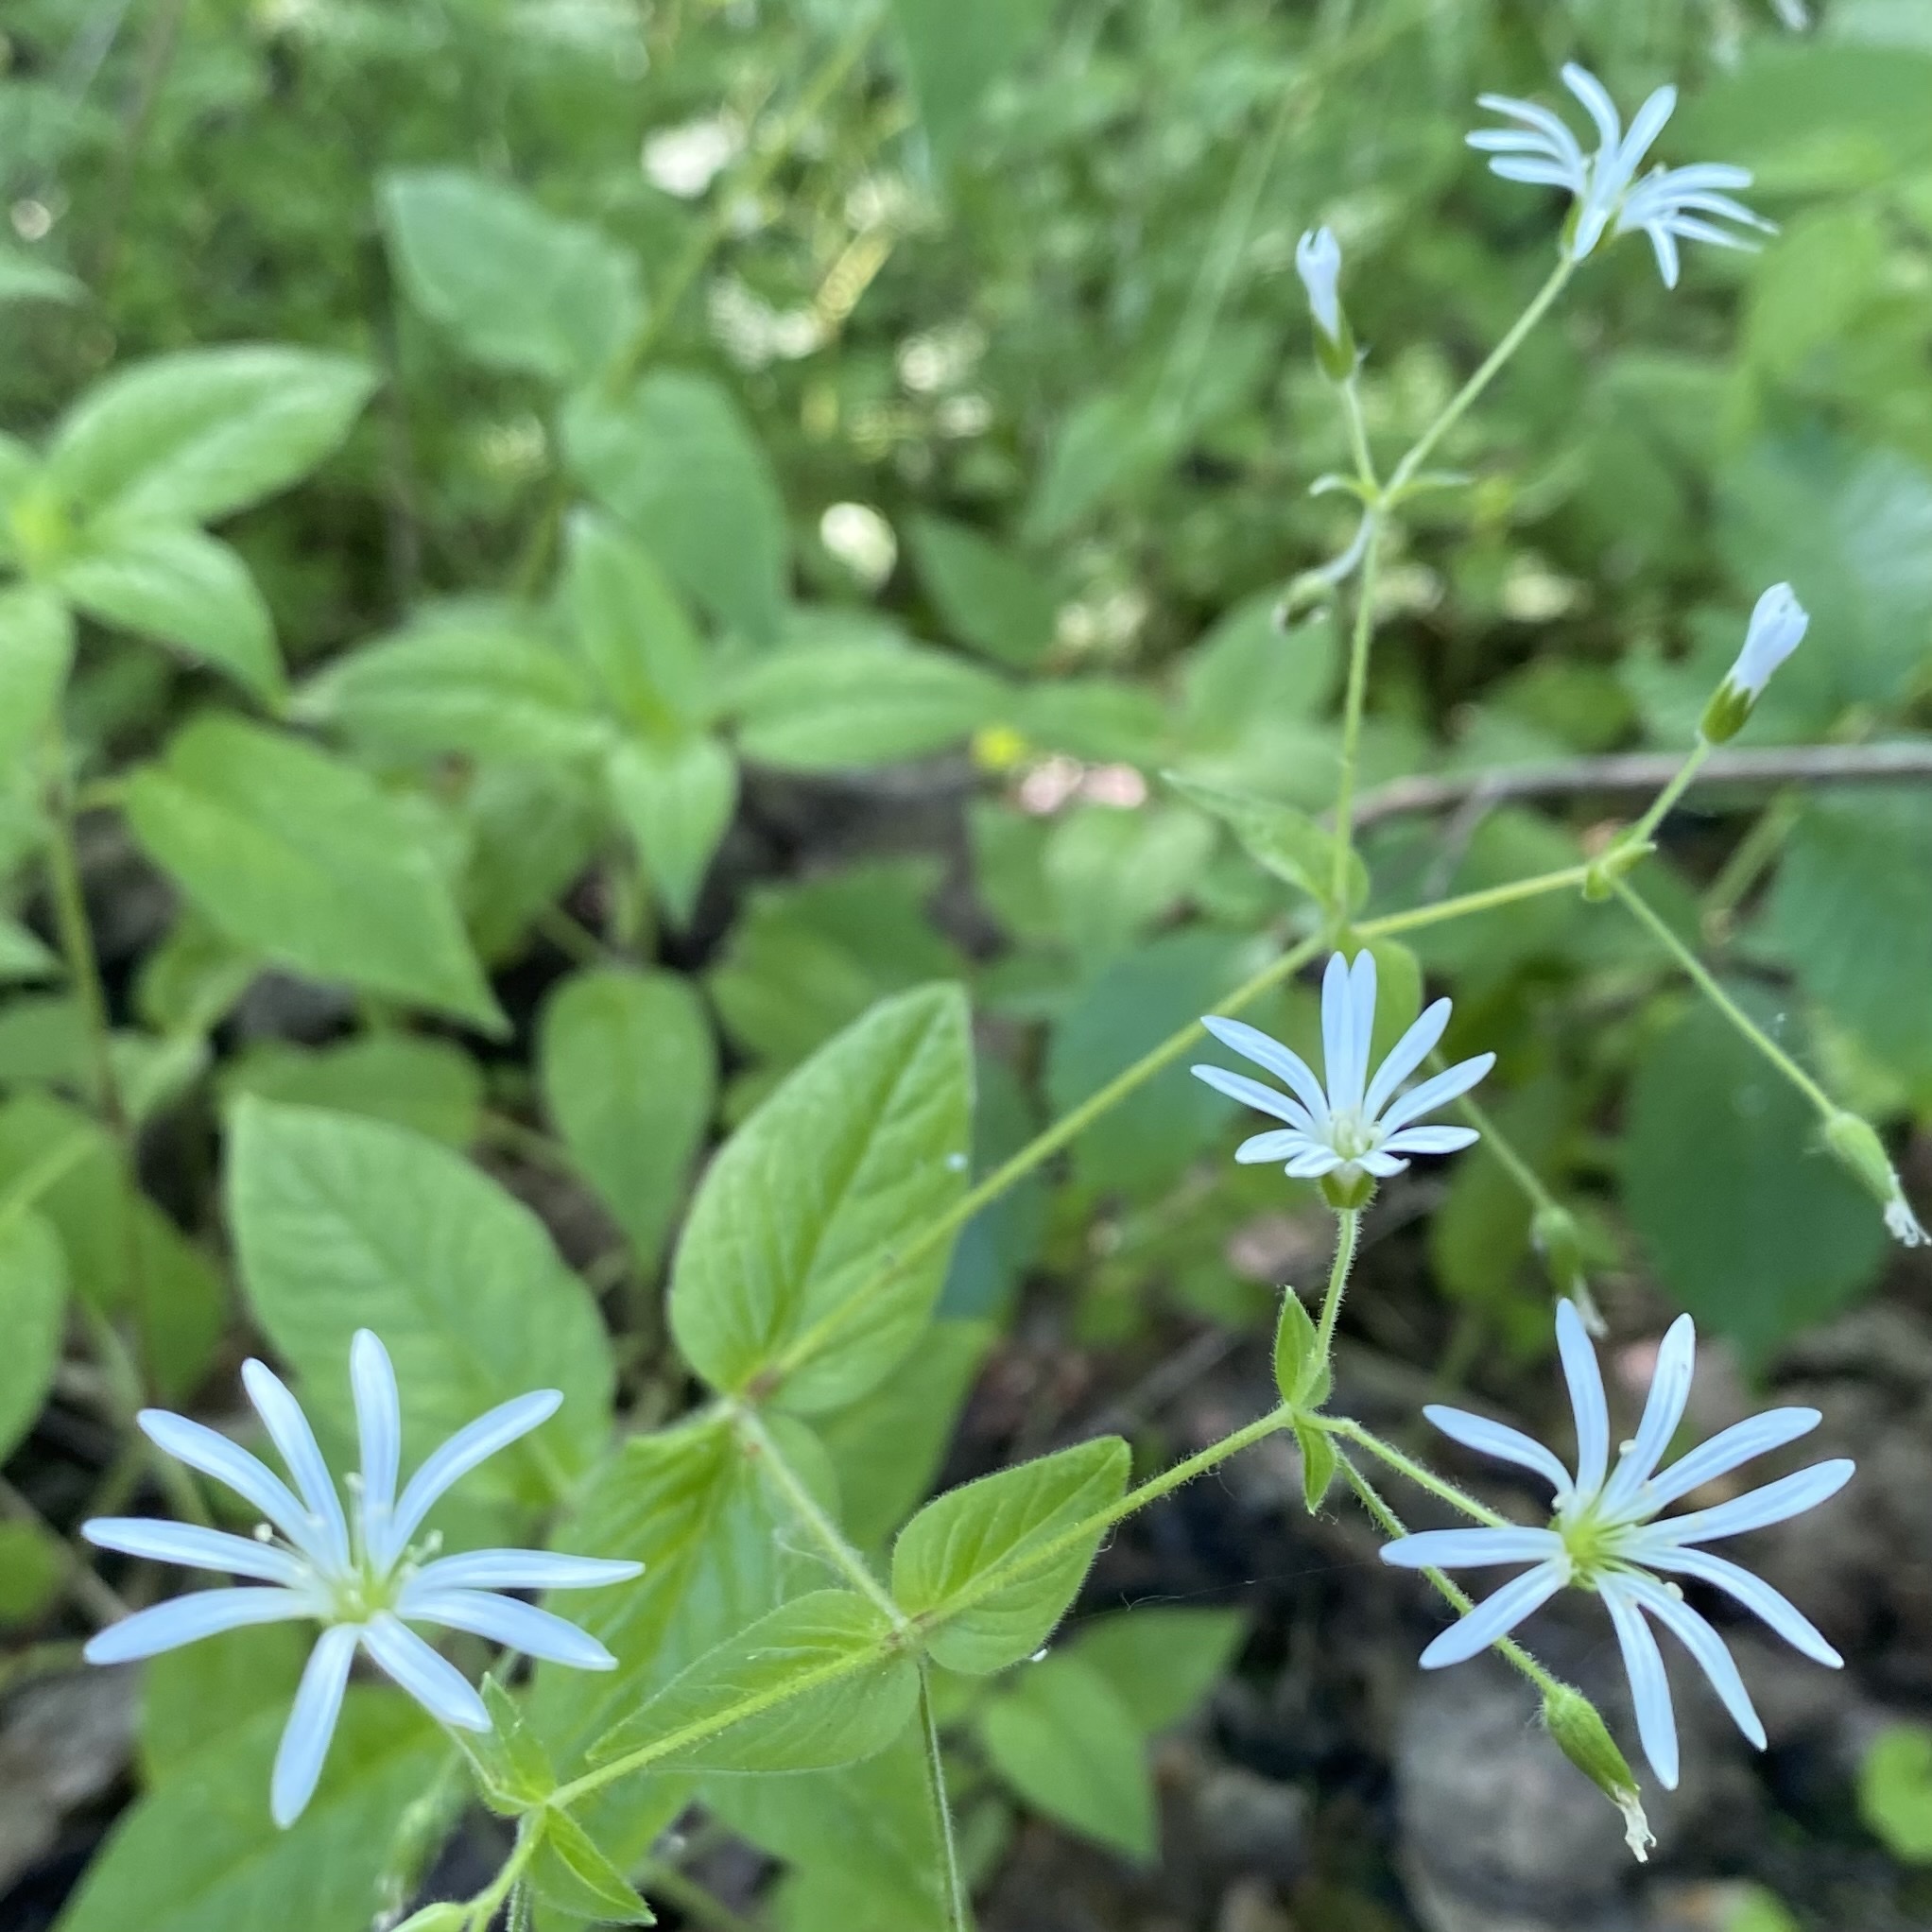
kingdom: Plantae
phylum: Tracheophyta
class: Magnoliopsida
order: Caryophyllales
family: Caryophyllaceae
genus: Stellaria
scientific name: Stellaria nemorum
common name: Wood stitchwort
